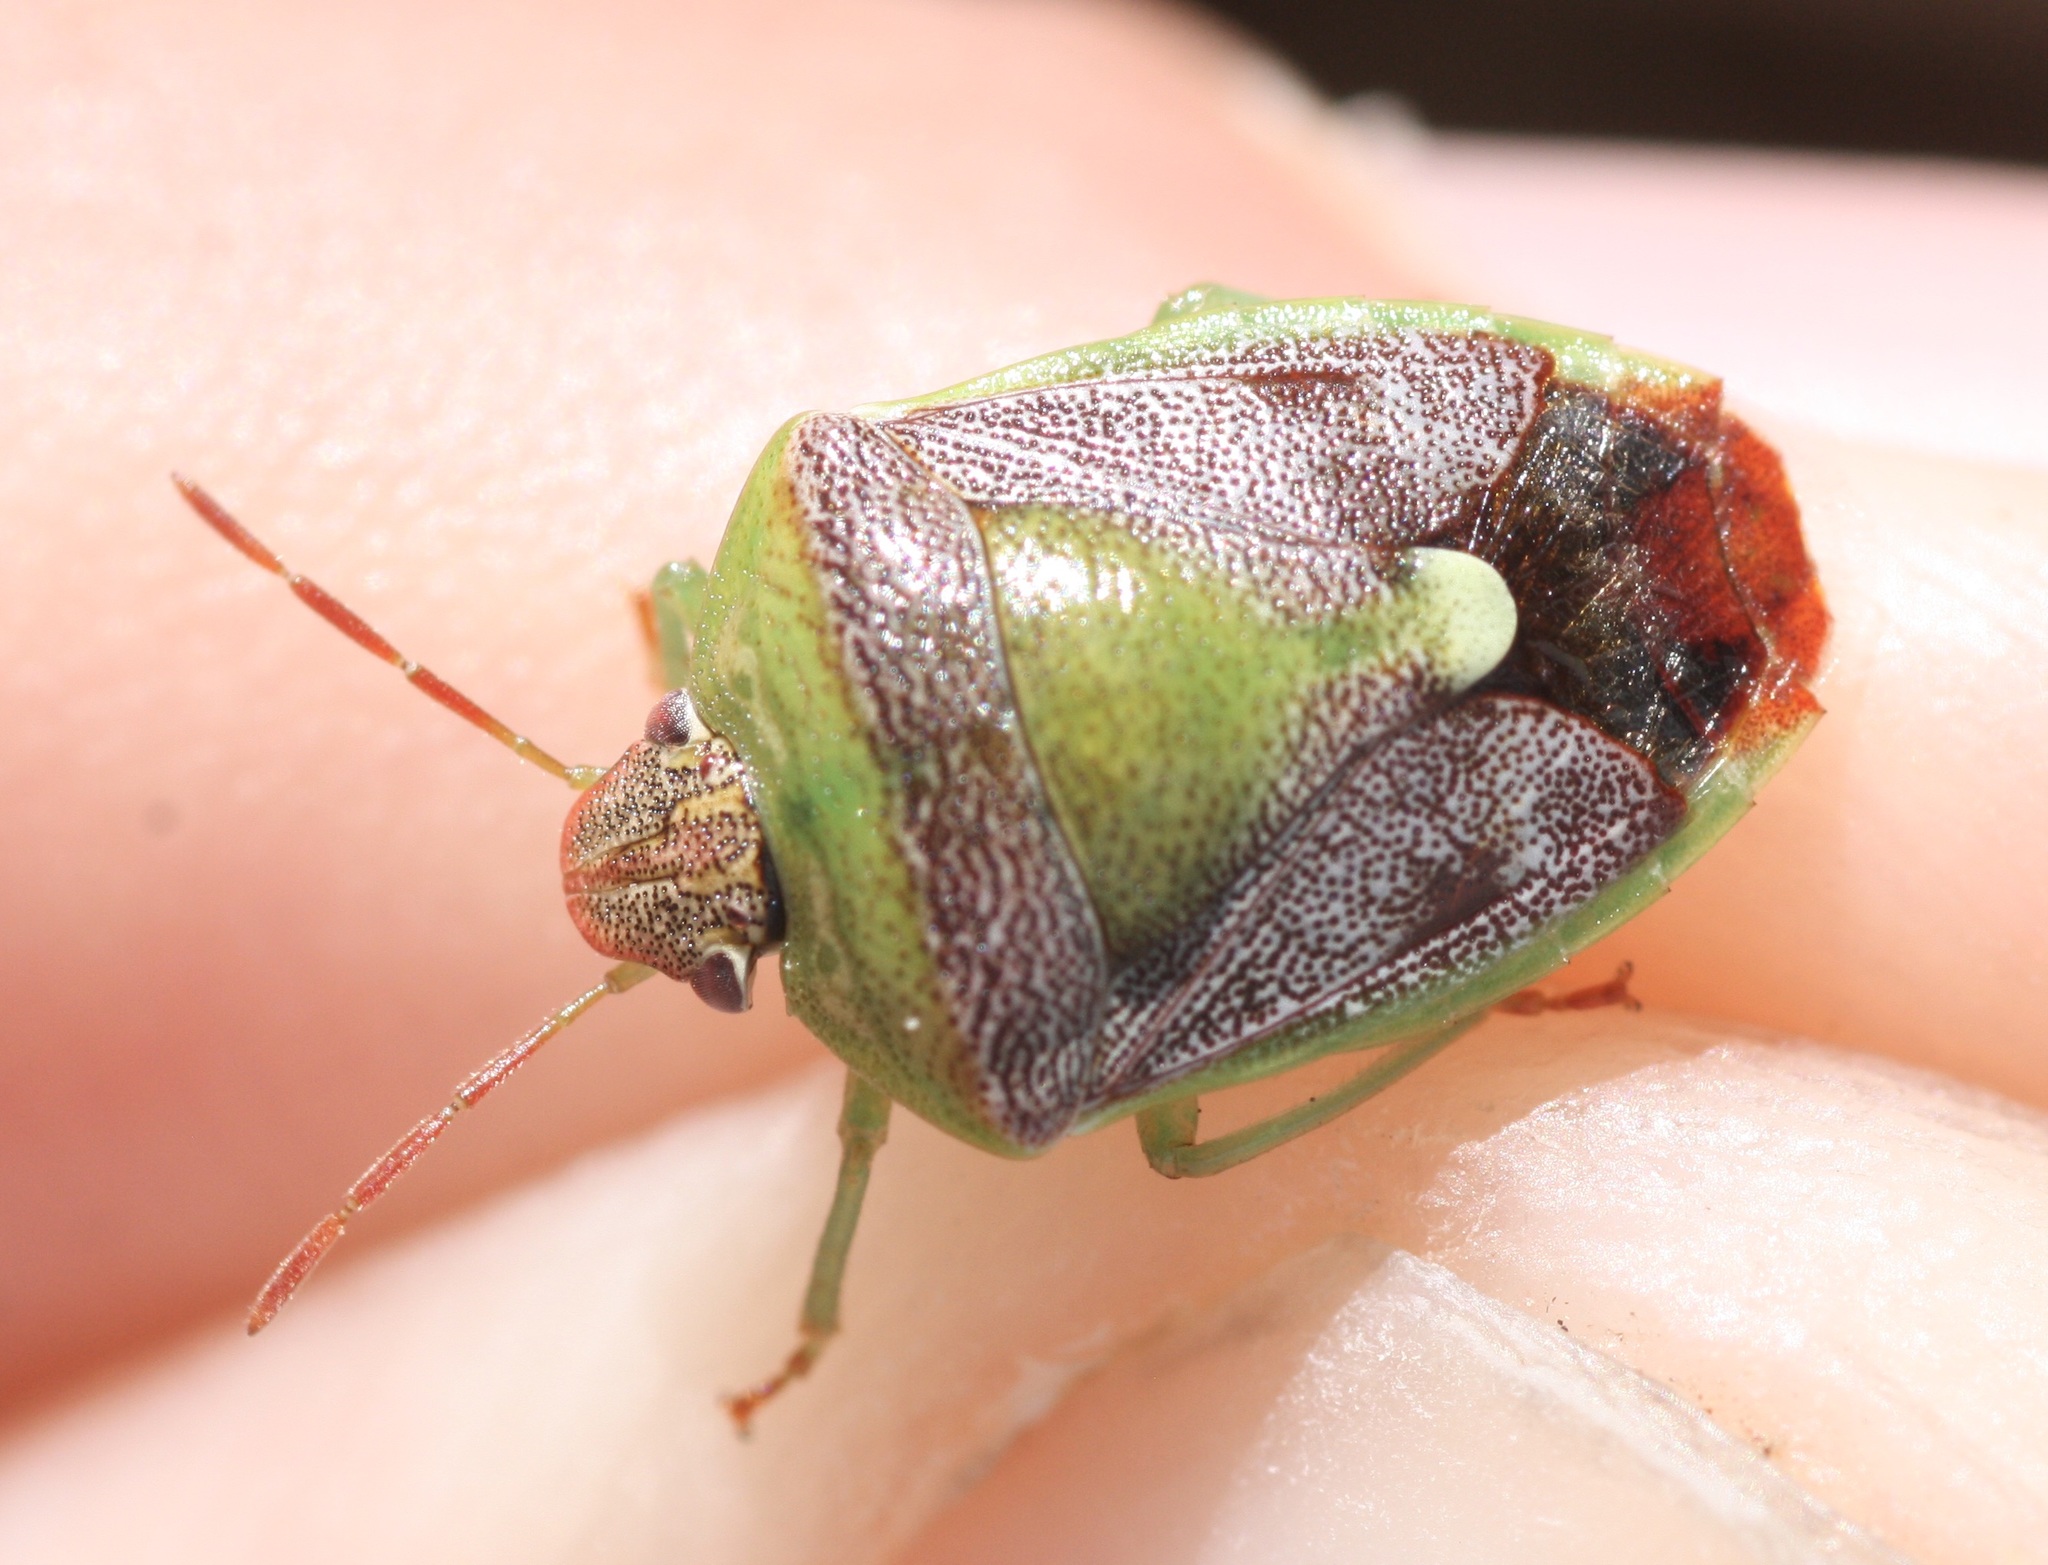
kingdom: Animalia
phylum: Arthropoda
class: Insecta
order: Hemiptera
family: Pentatomidae
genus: Banasa
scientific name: Banasa dimidiata
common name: Green burgundy stink bug
